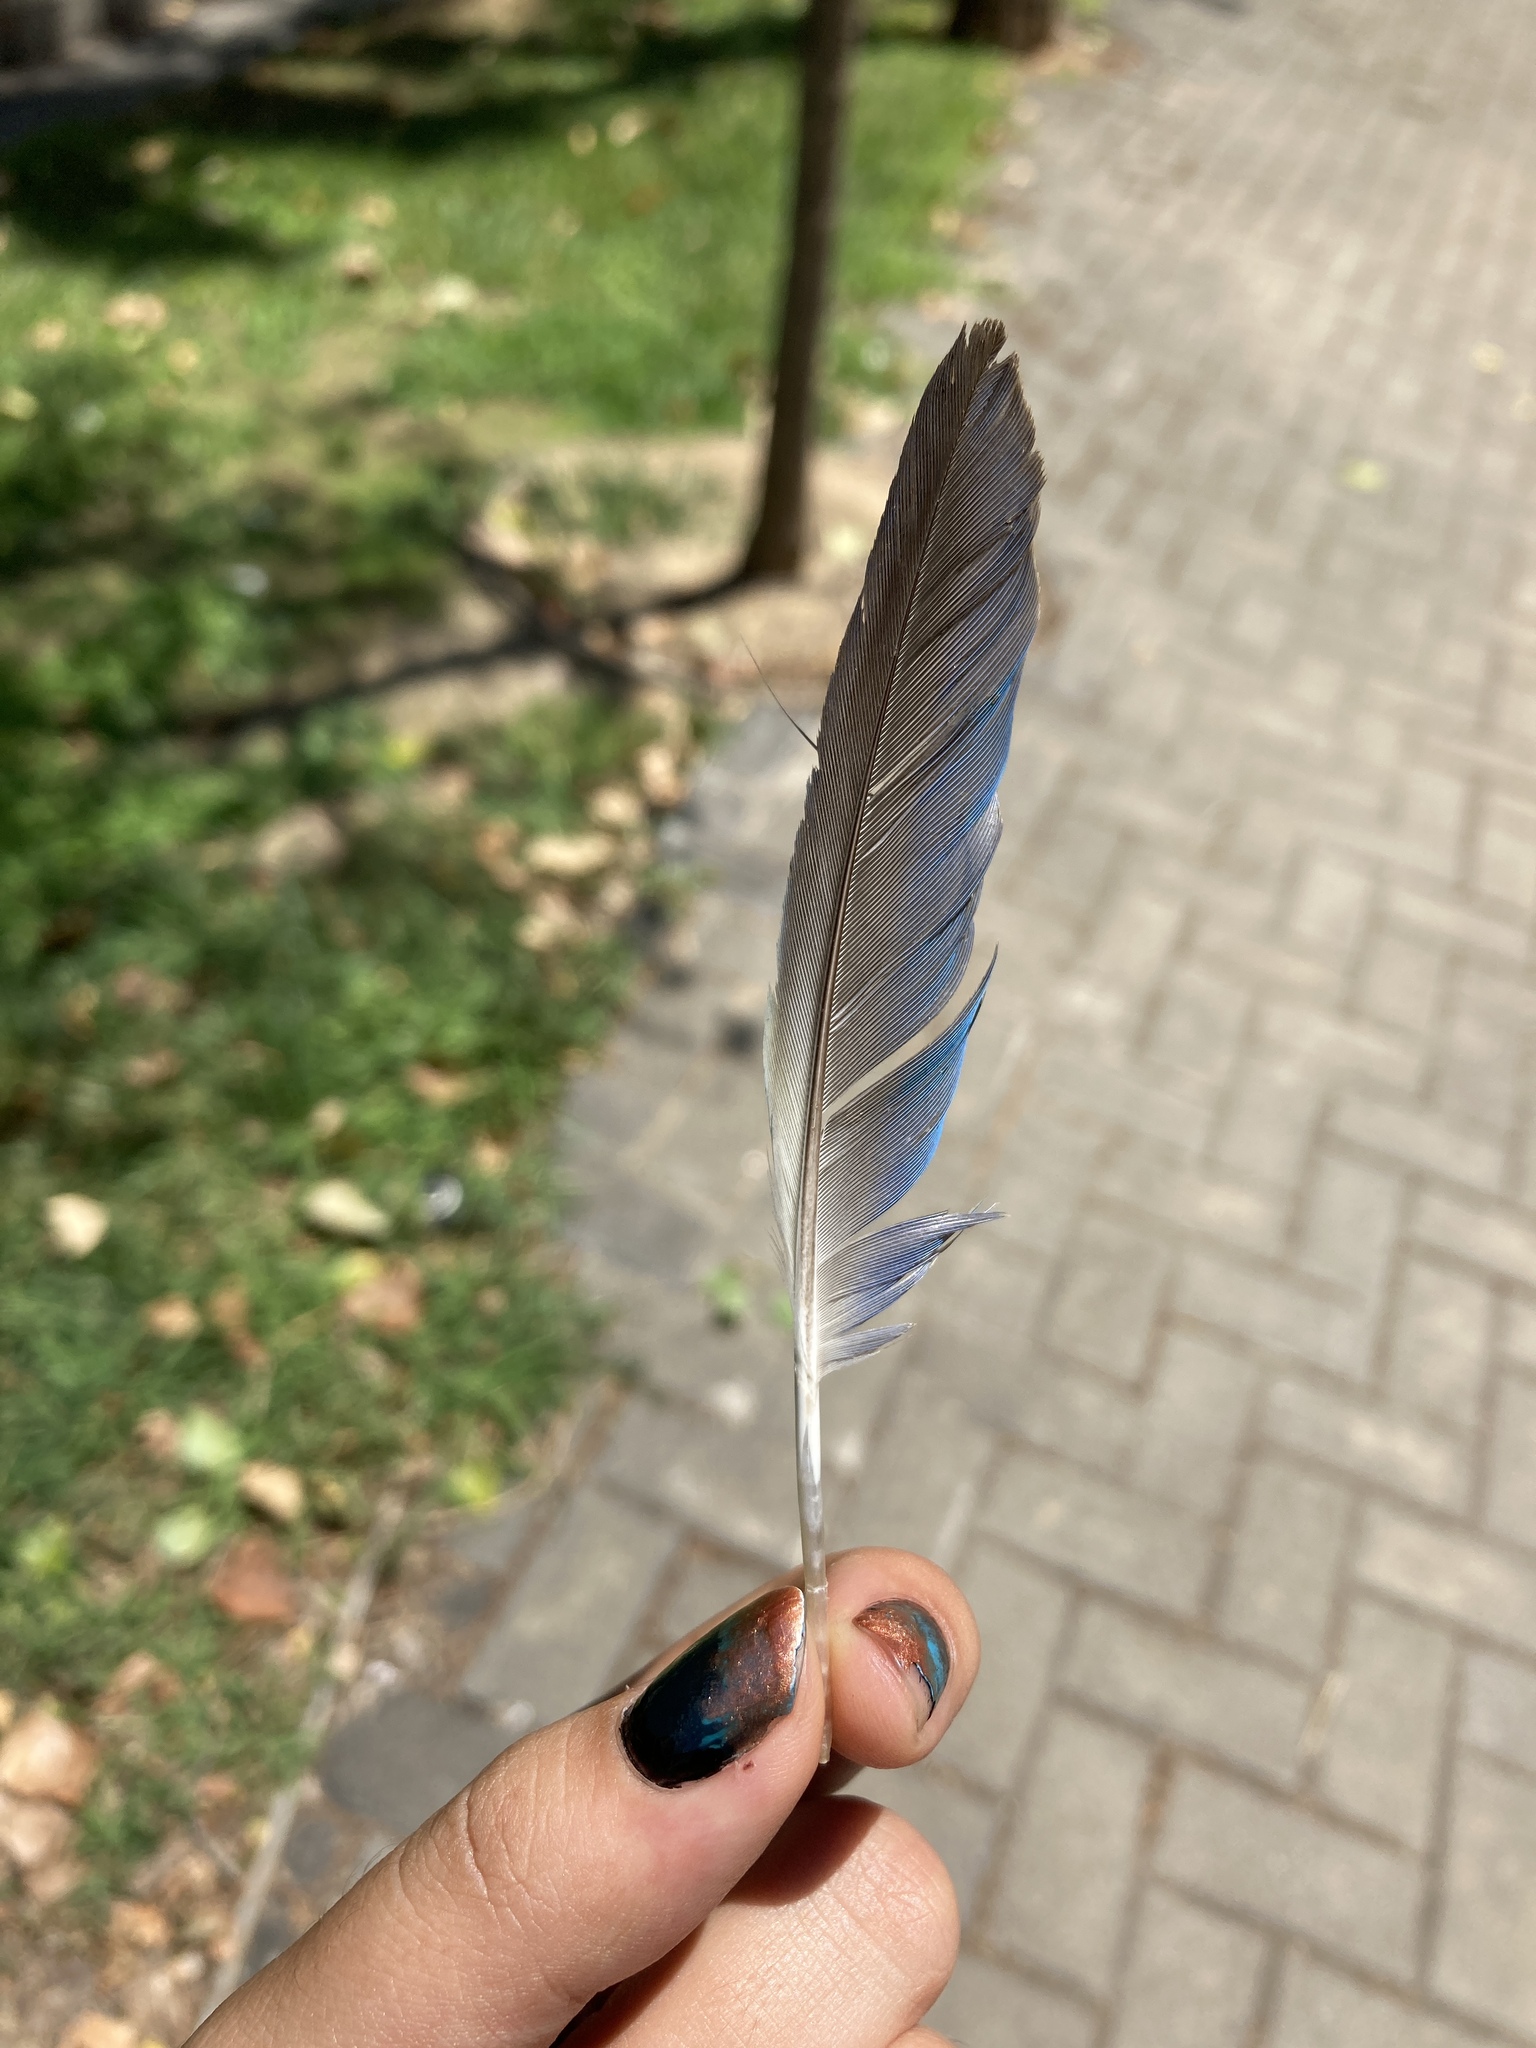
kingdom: Animalia
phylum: Chordata
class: Aves
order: Psittaciformes
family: Psittacidae
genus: Myiopsitta
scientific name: Myiopsitta monachus
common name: Monk parakeet
